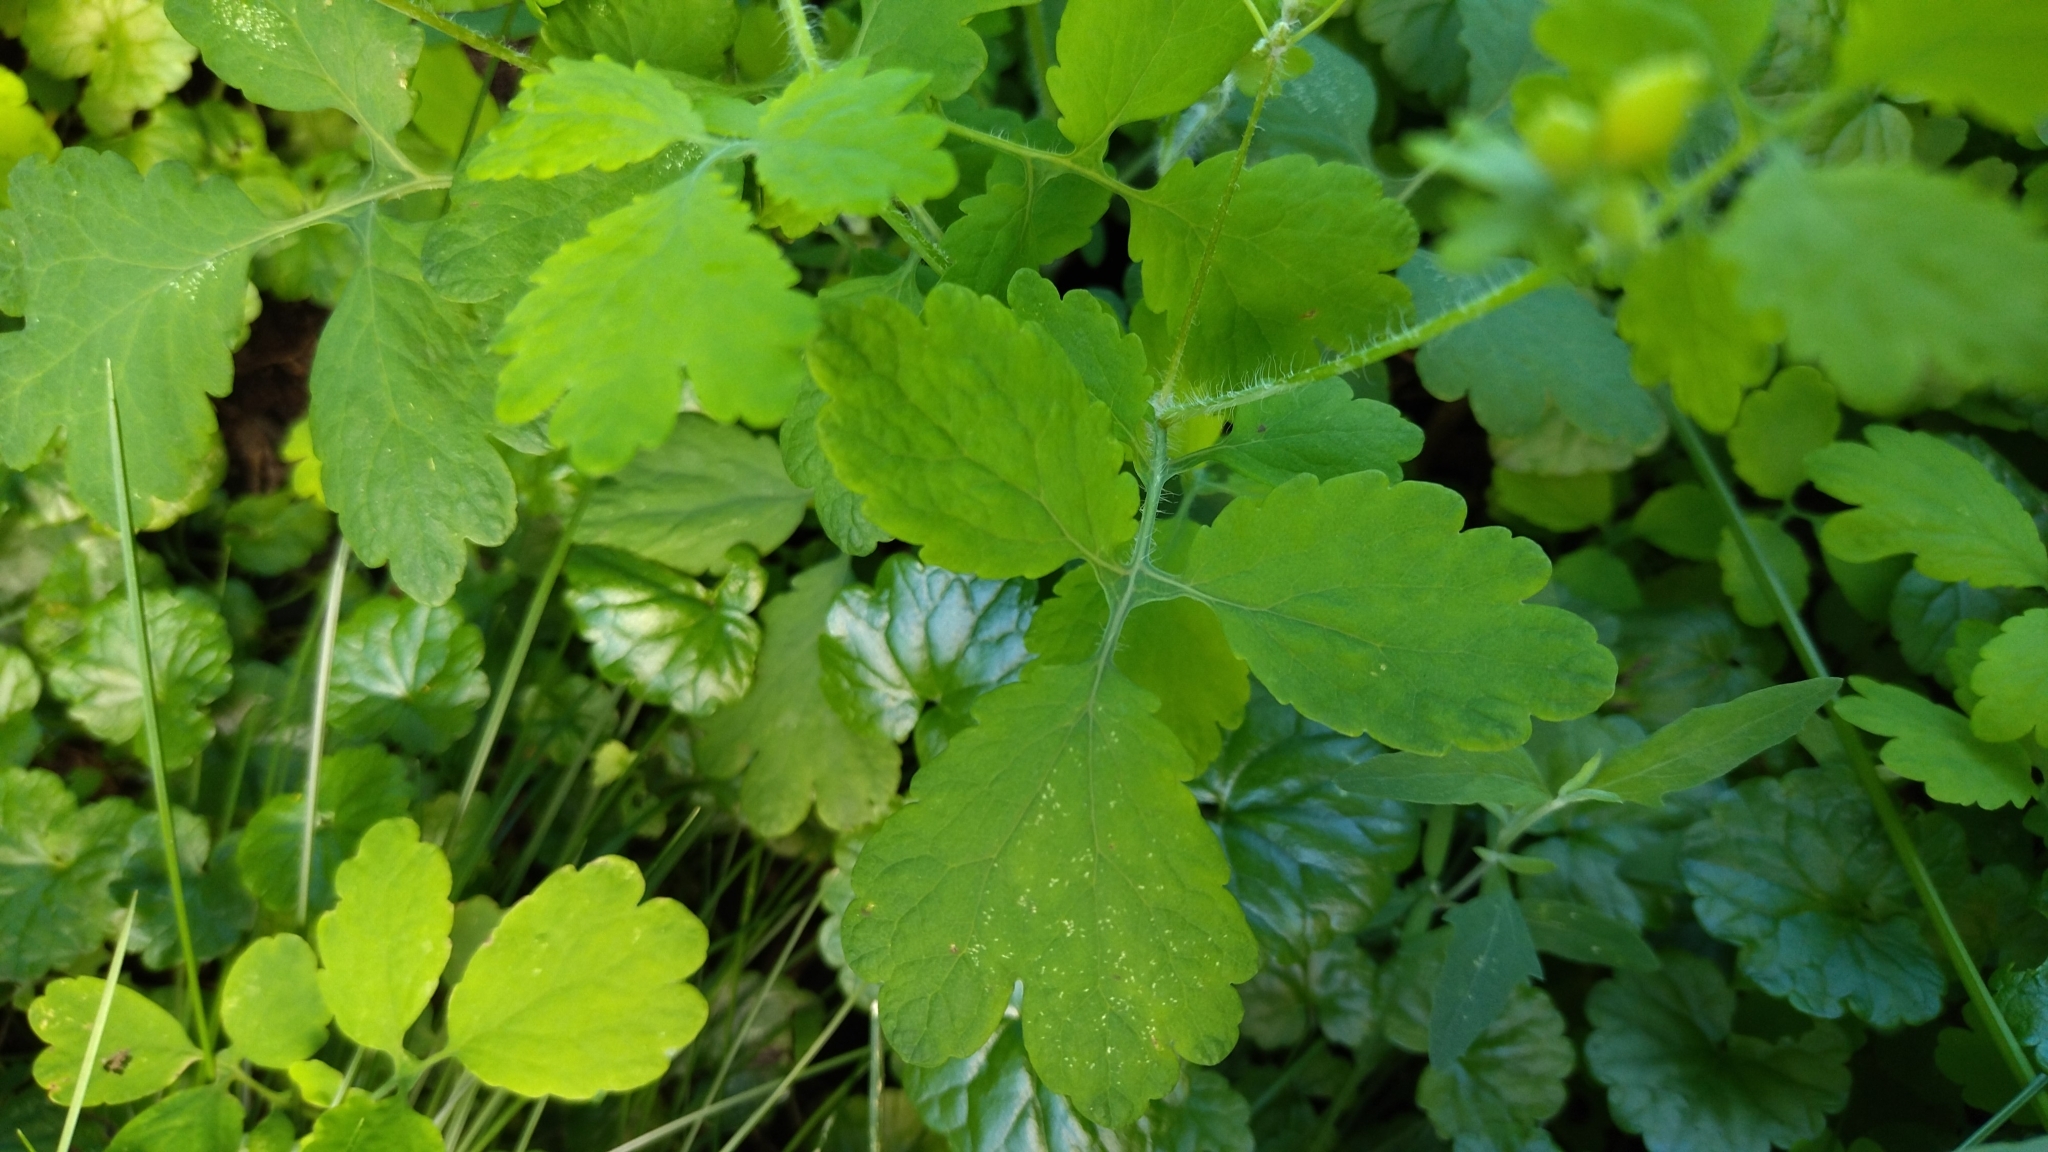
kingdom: Plantae
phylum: Tracheophyta
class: Magnoliopsida
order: Ranunculales
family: Papaveraceae
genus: Chelidonium
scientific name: Chelidonium majus
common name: Greater celandine
